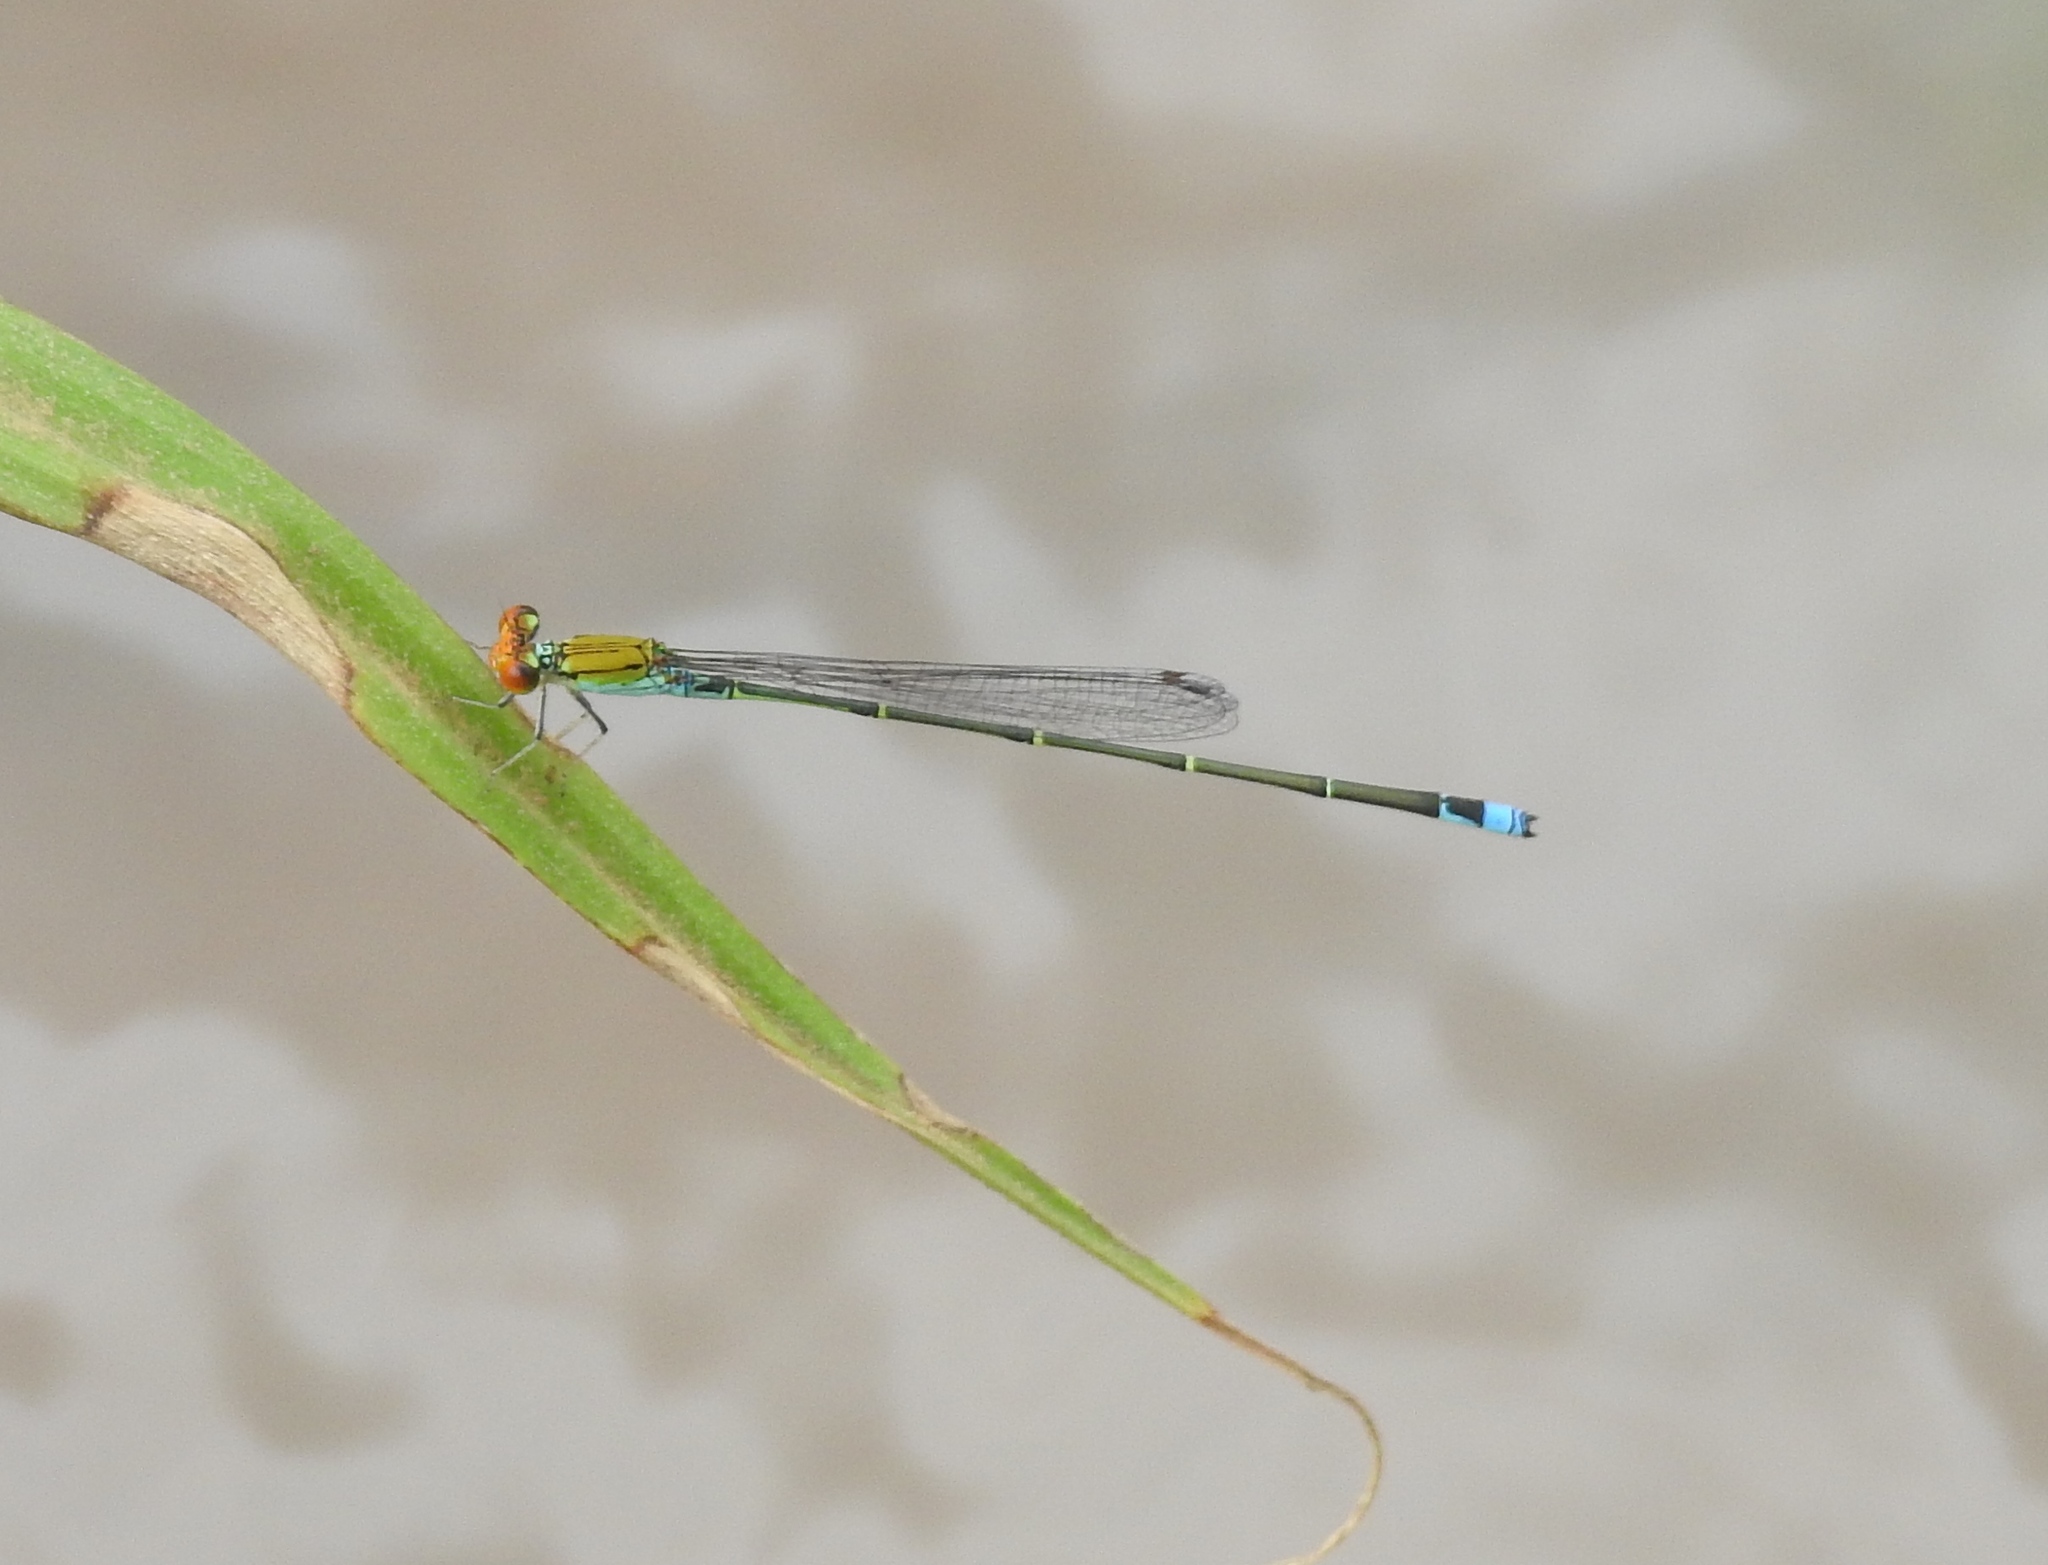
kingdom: Animalia
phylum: Arthropoda
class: Insecta
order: Odonata
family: Coenagrionidae
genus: Pseudagrion
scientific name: Pseudagrion rubriceps
